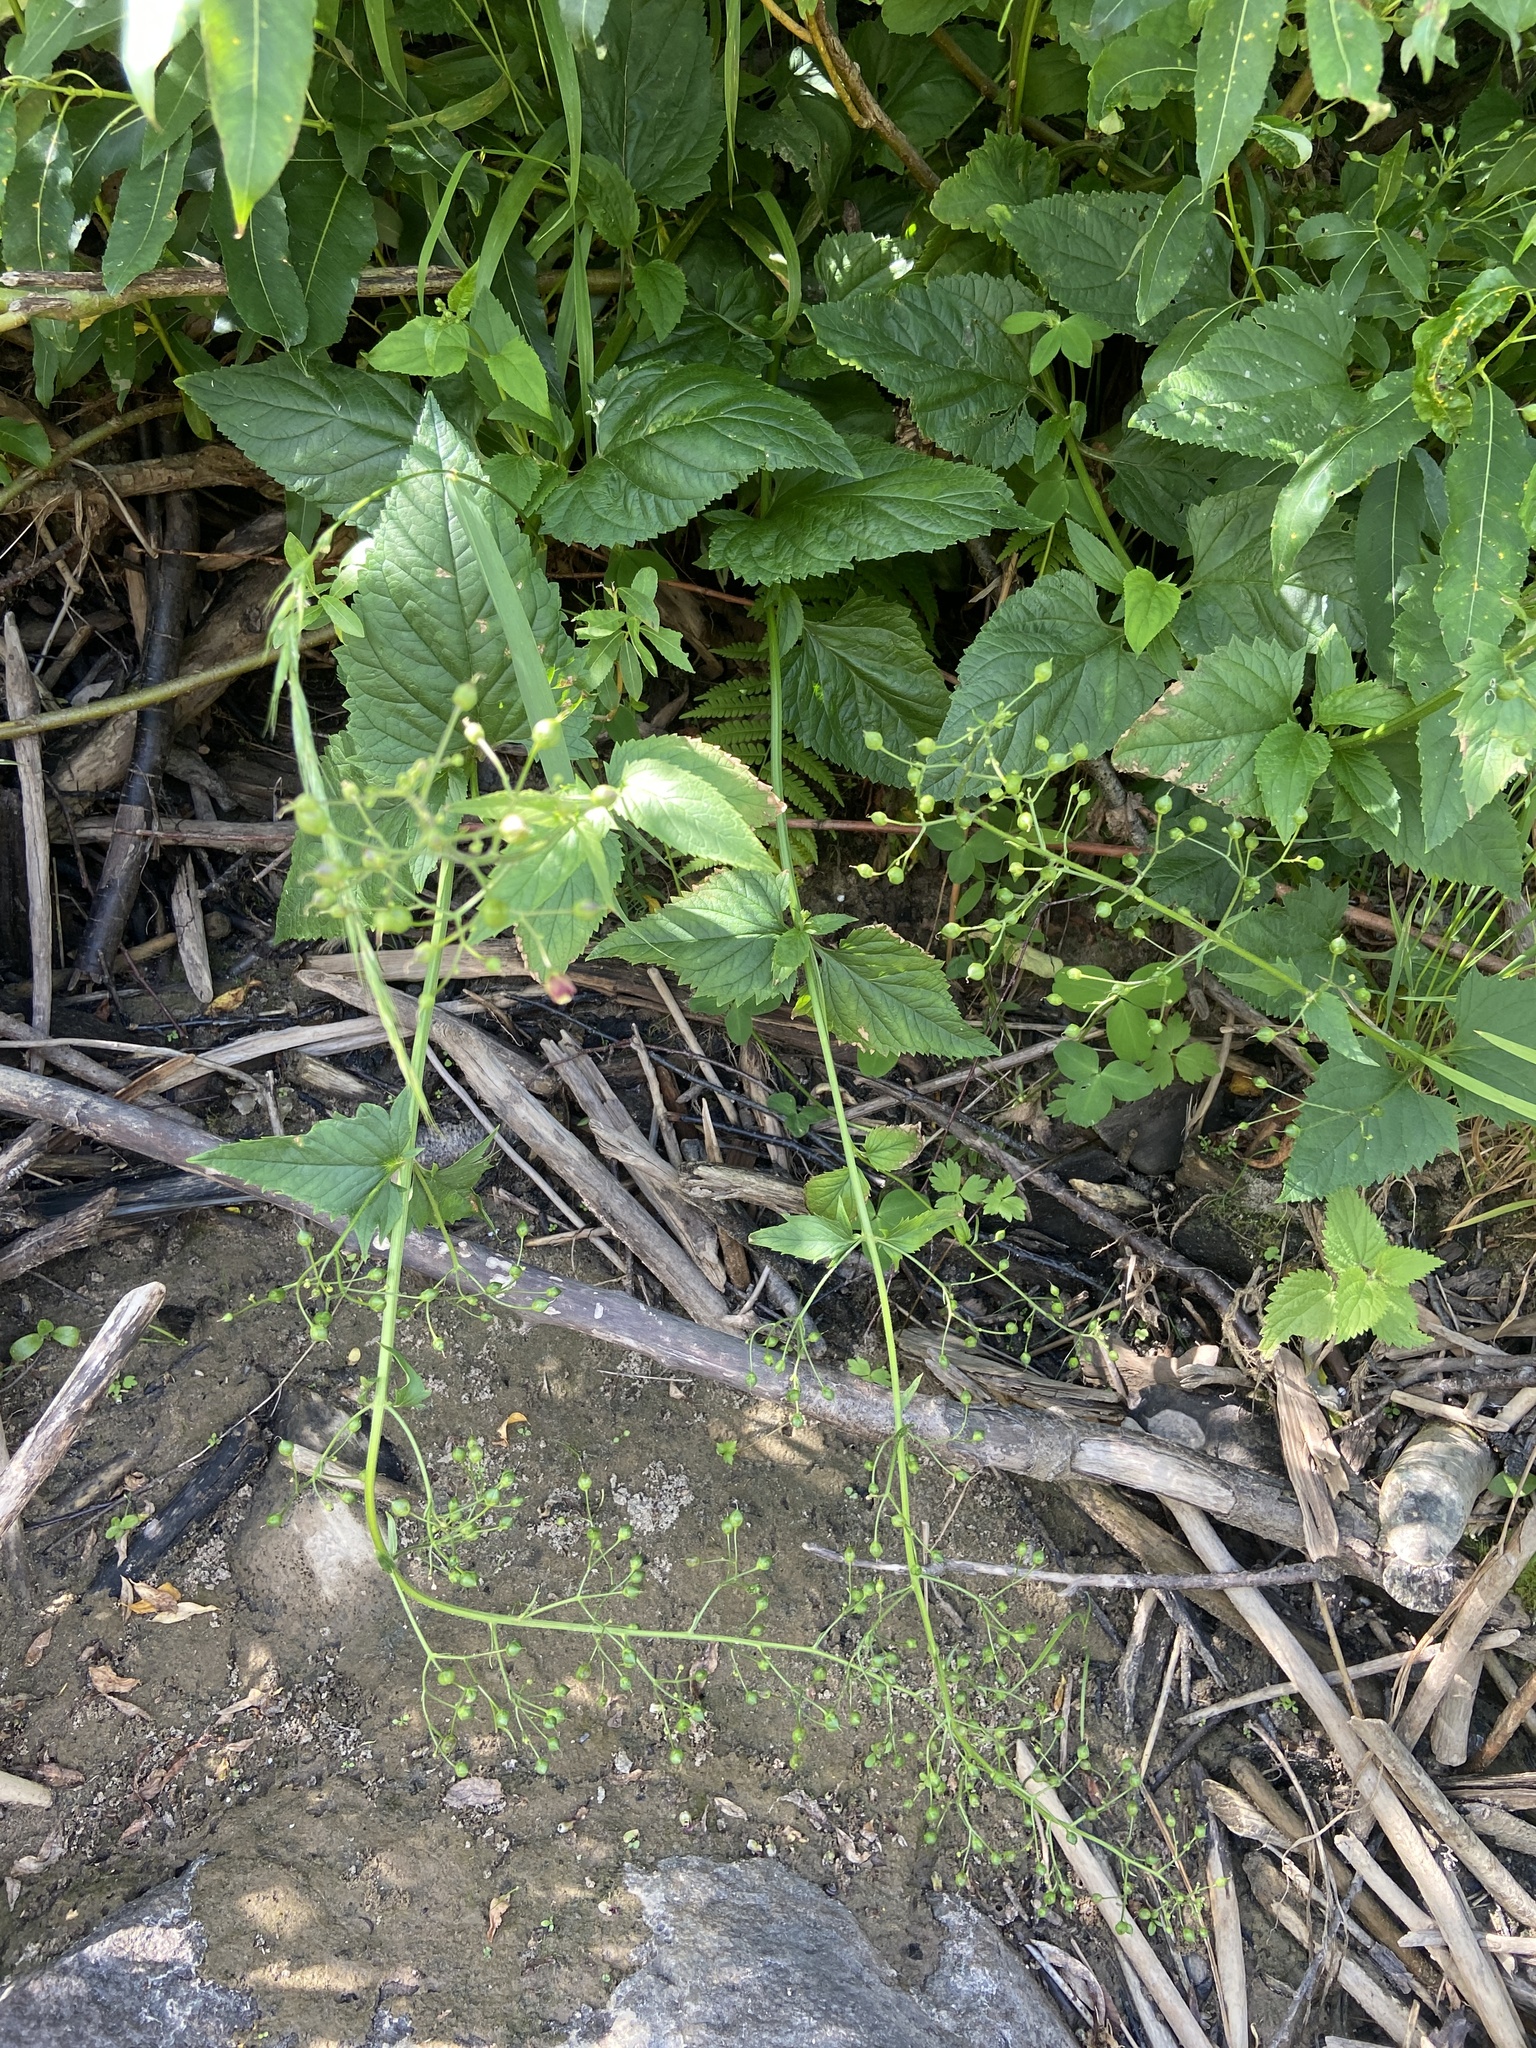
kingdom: Plantae
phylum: Tracheophyta
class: Magnoliopsida
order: Lamiales
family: Scrophulariaceae
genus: Scrophularia
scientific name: Scrophularia nodosa
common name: Common figwort
